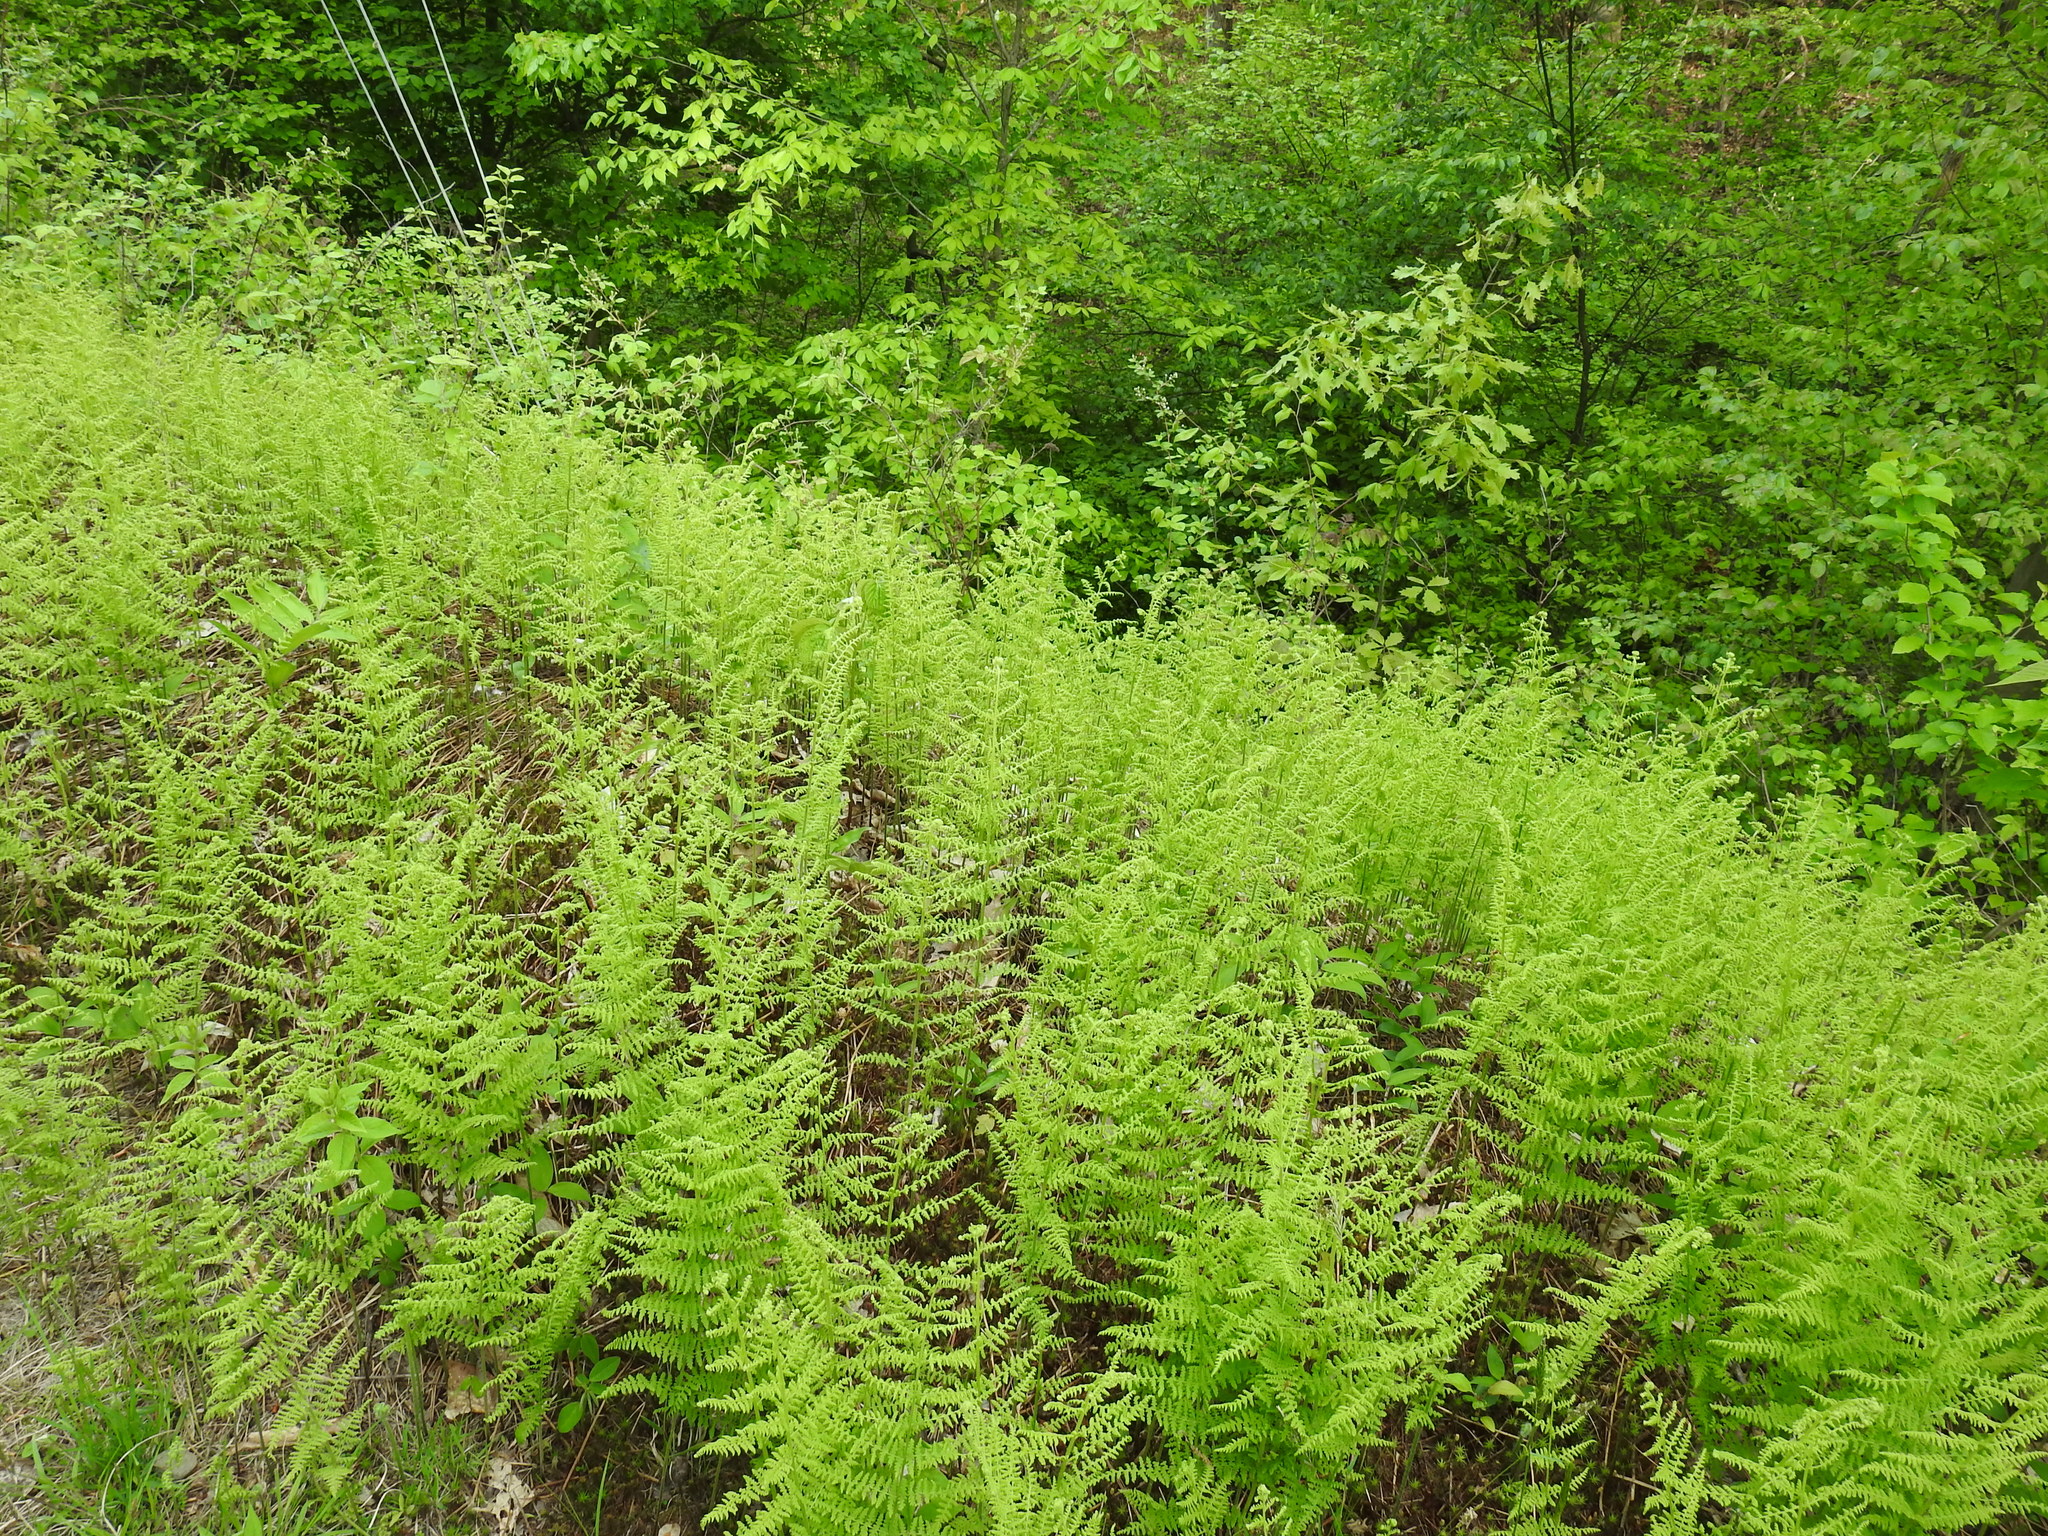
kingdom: Plantae
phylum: Tracheophyta
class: Polypodiopsida
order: Polypodiales
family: Dennstaedtiaceae
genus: Sitobolium
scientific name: Sitobolium punctilobum
